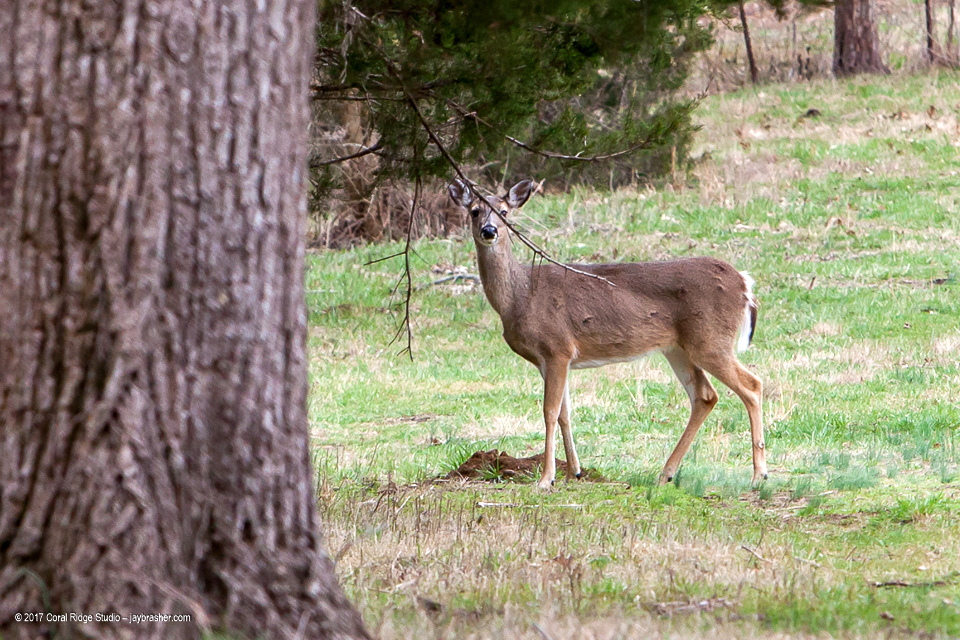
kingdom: Animalia
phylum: Chordata
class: Mammalia
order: Artiodactyla
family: Cervidae
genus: Odocoileus
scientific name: Odocoileus virginianus
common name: White-tailed deer
